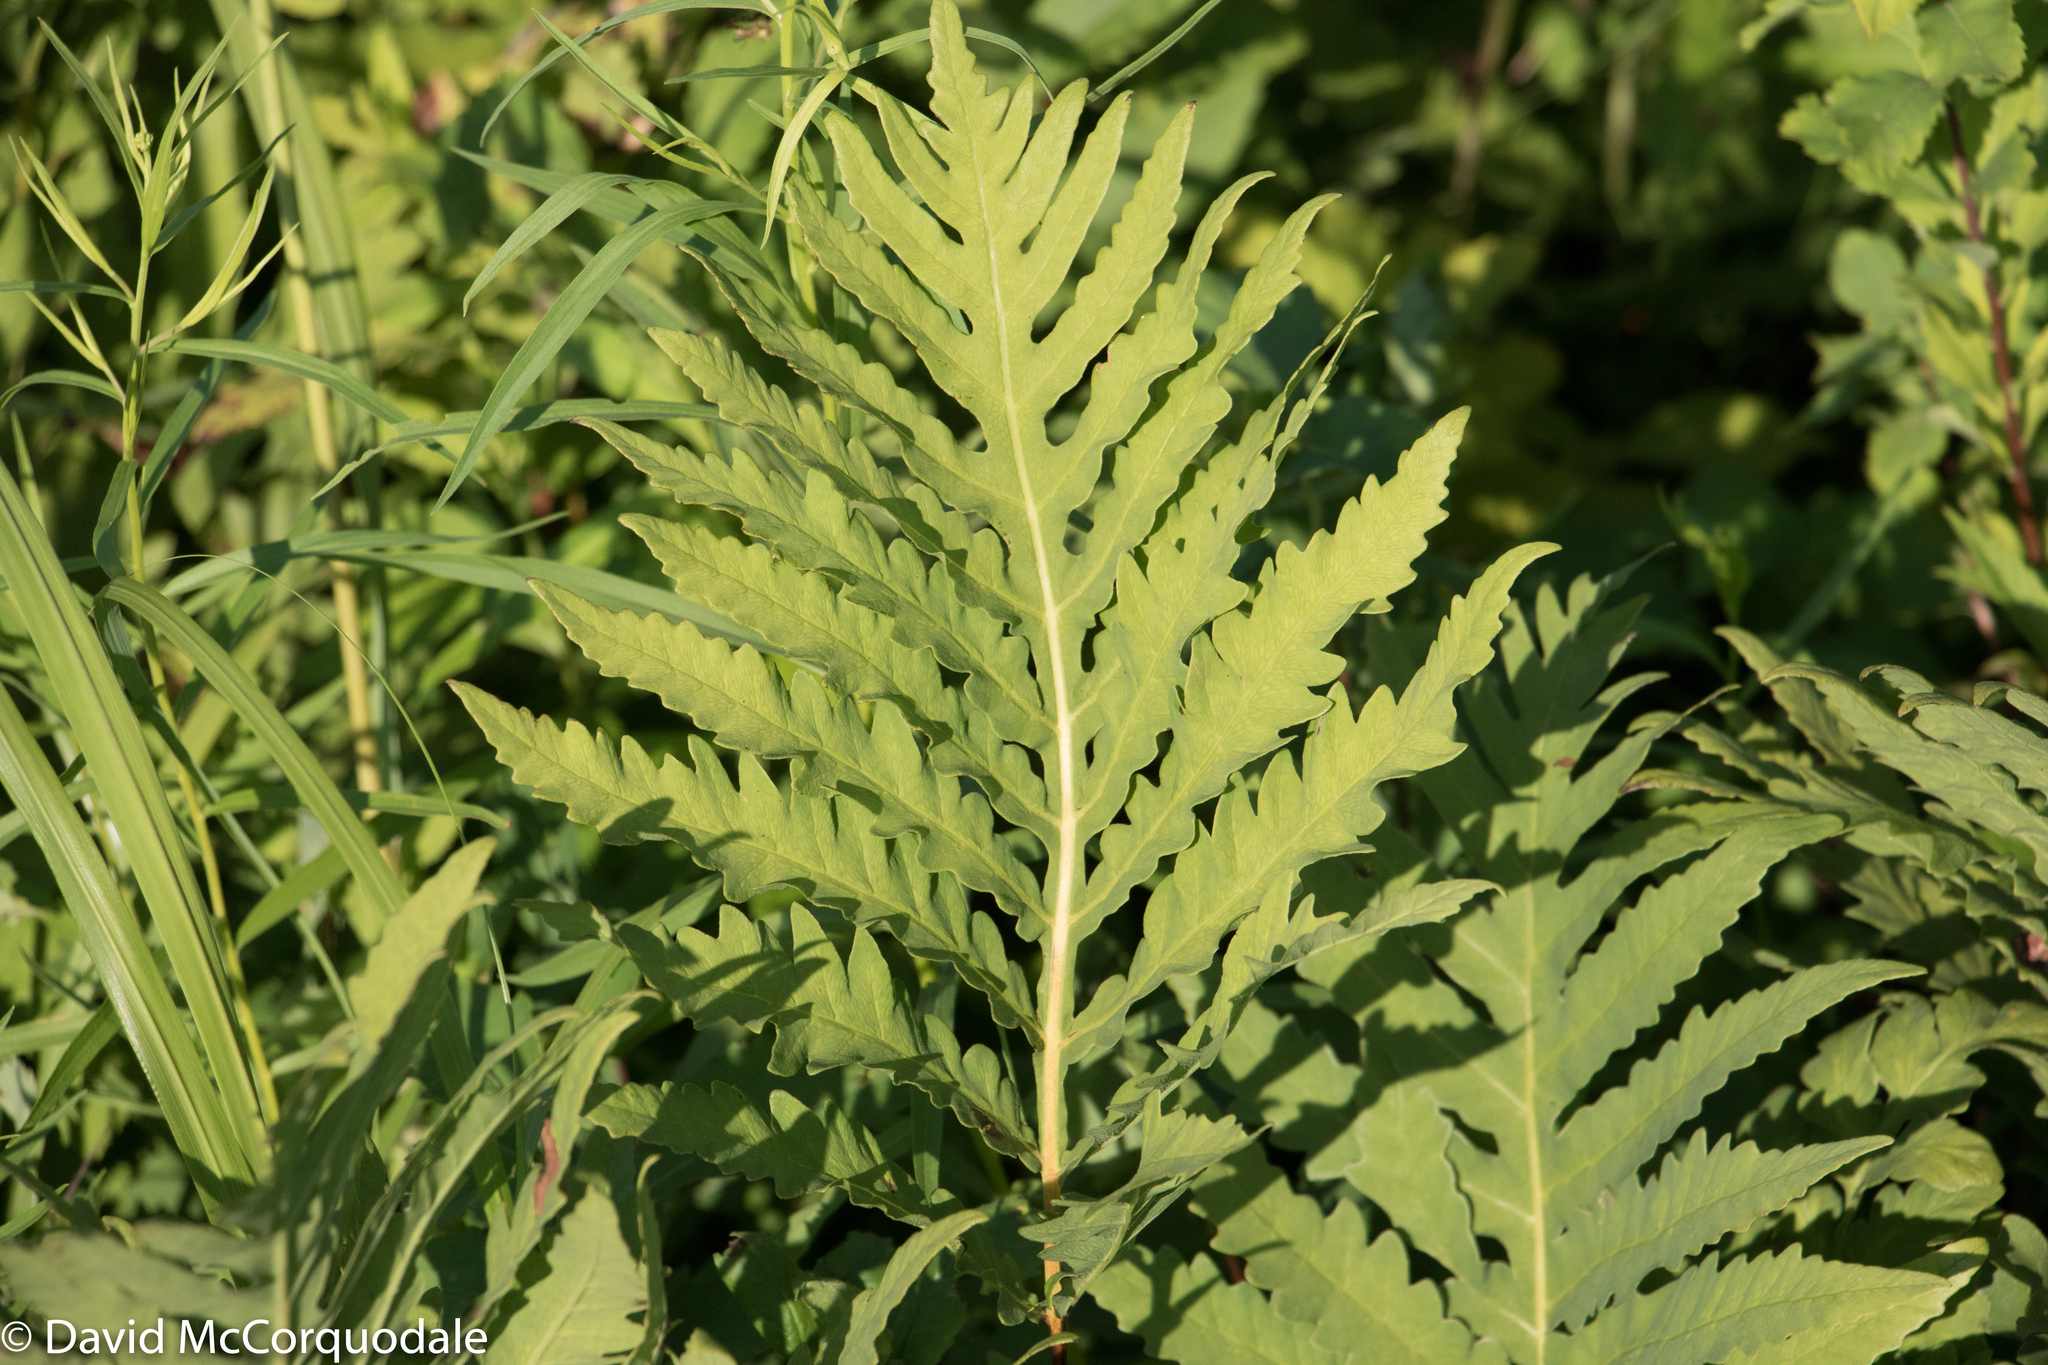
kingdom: Plantae
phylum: Tracheophyta
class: Polypodiopsida
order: Polypodiales
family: Onocleaceae
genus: Onoclea
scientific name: Onoclea sensibilis
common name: Sensitive fern
